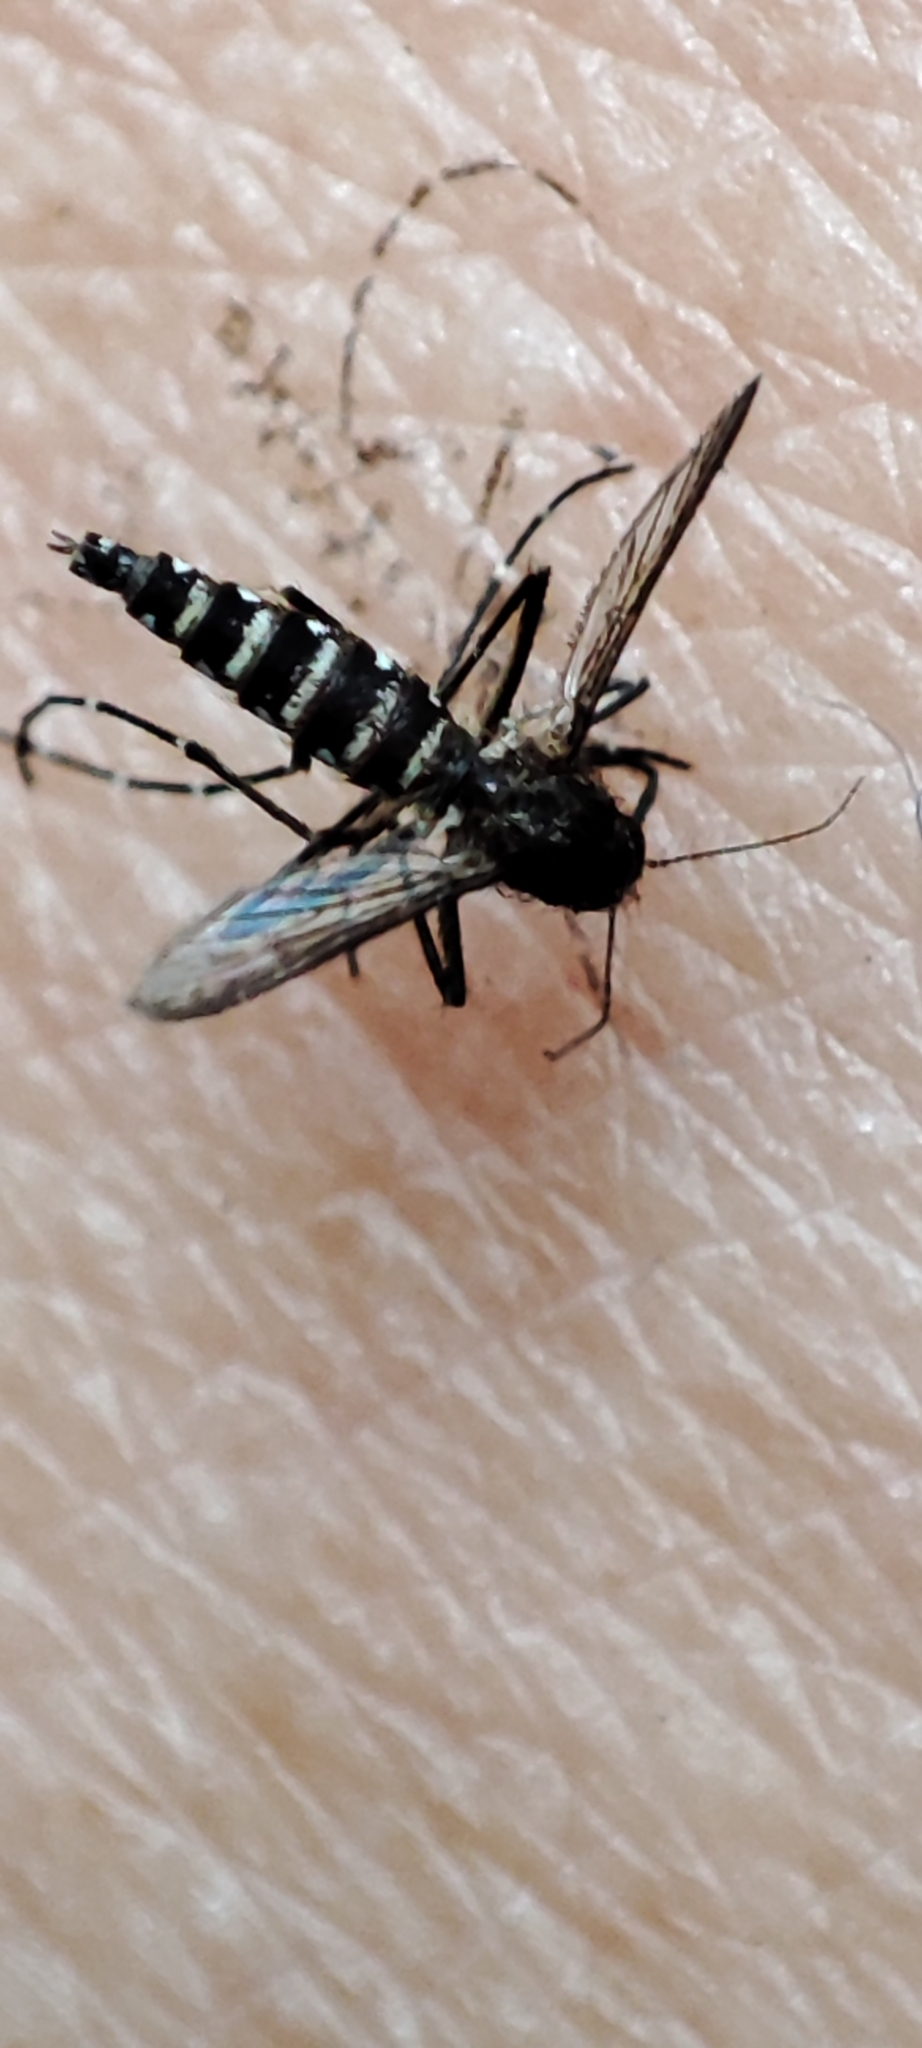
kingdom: Animalia
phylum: Arthropoda
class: Insecta
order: Diptera
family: Culicidae
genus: Aedes
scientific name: Aedes taeniorhynchus
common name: Black salt marsh mosquito
